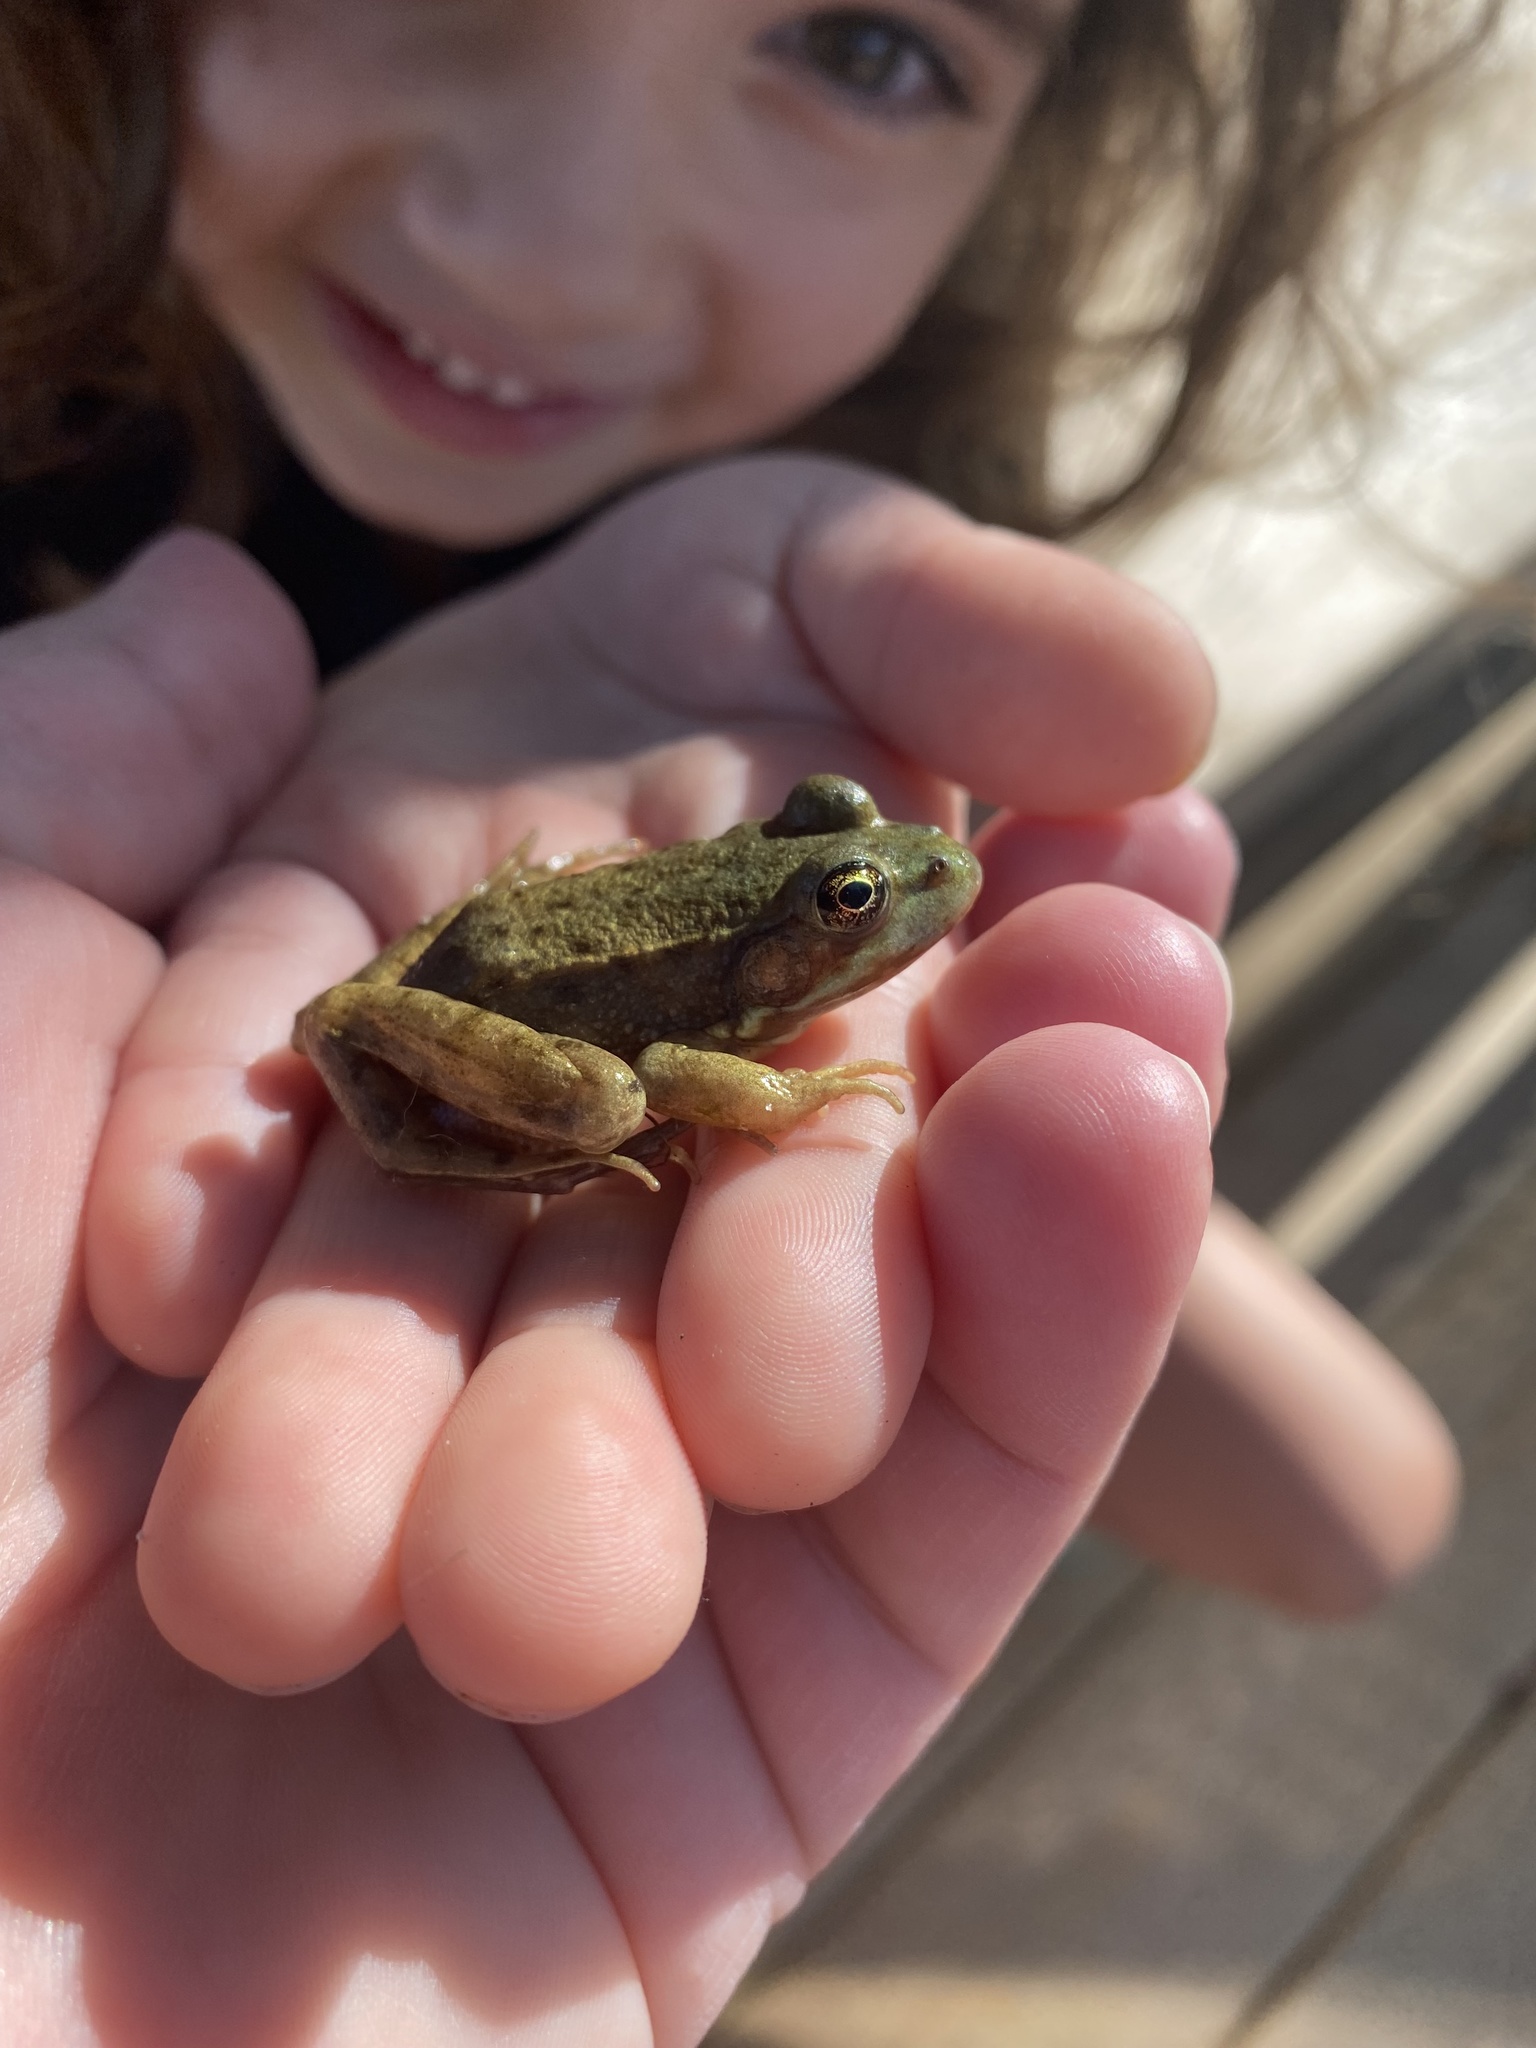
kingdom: Animalia
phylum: Chordata
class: Amphibia
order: Anura
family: Ranidae
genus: Lithobates
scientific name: Lithobates clamitans
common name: Green frog
